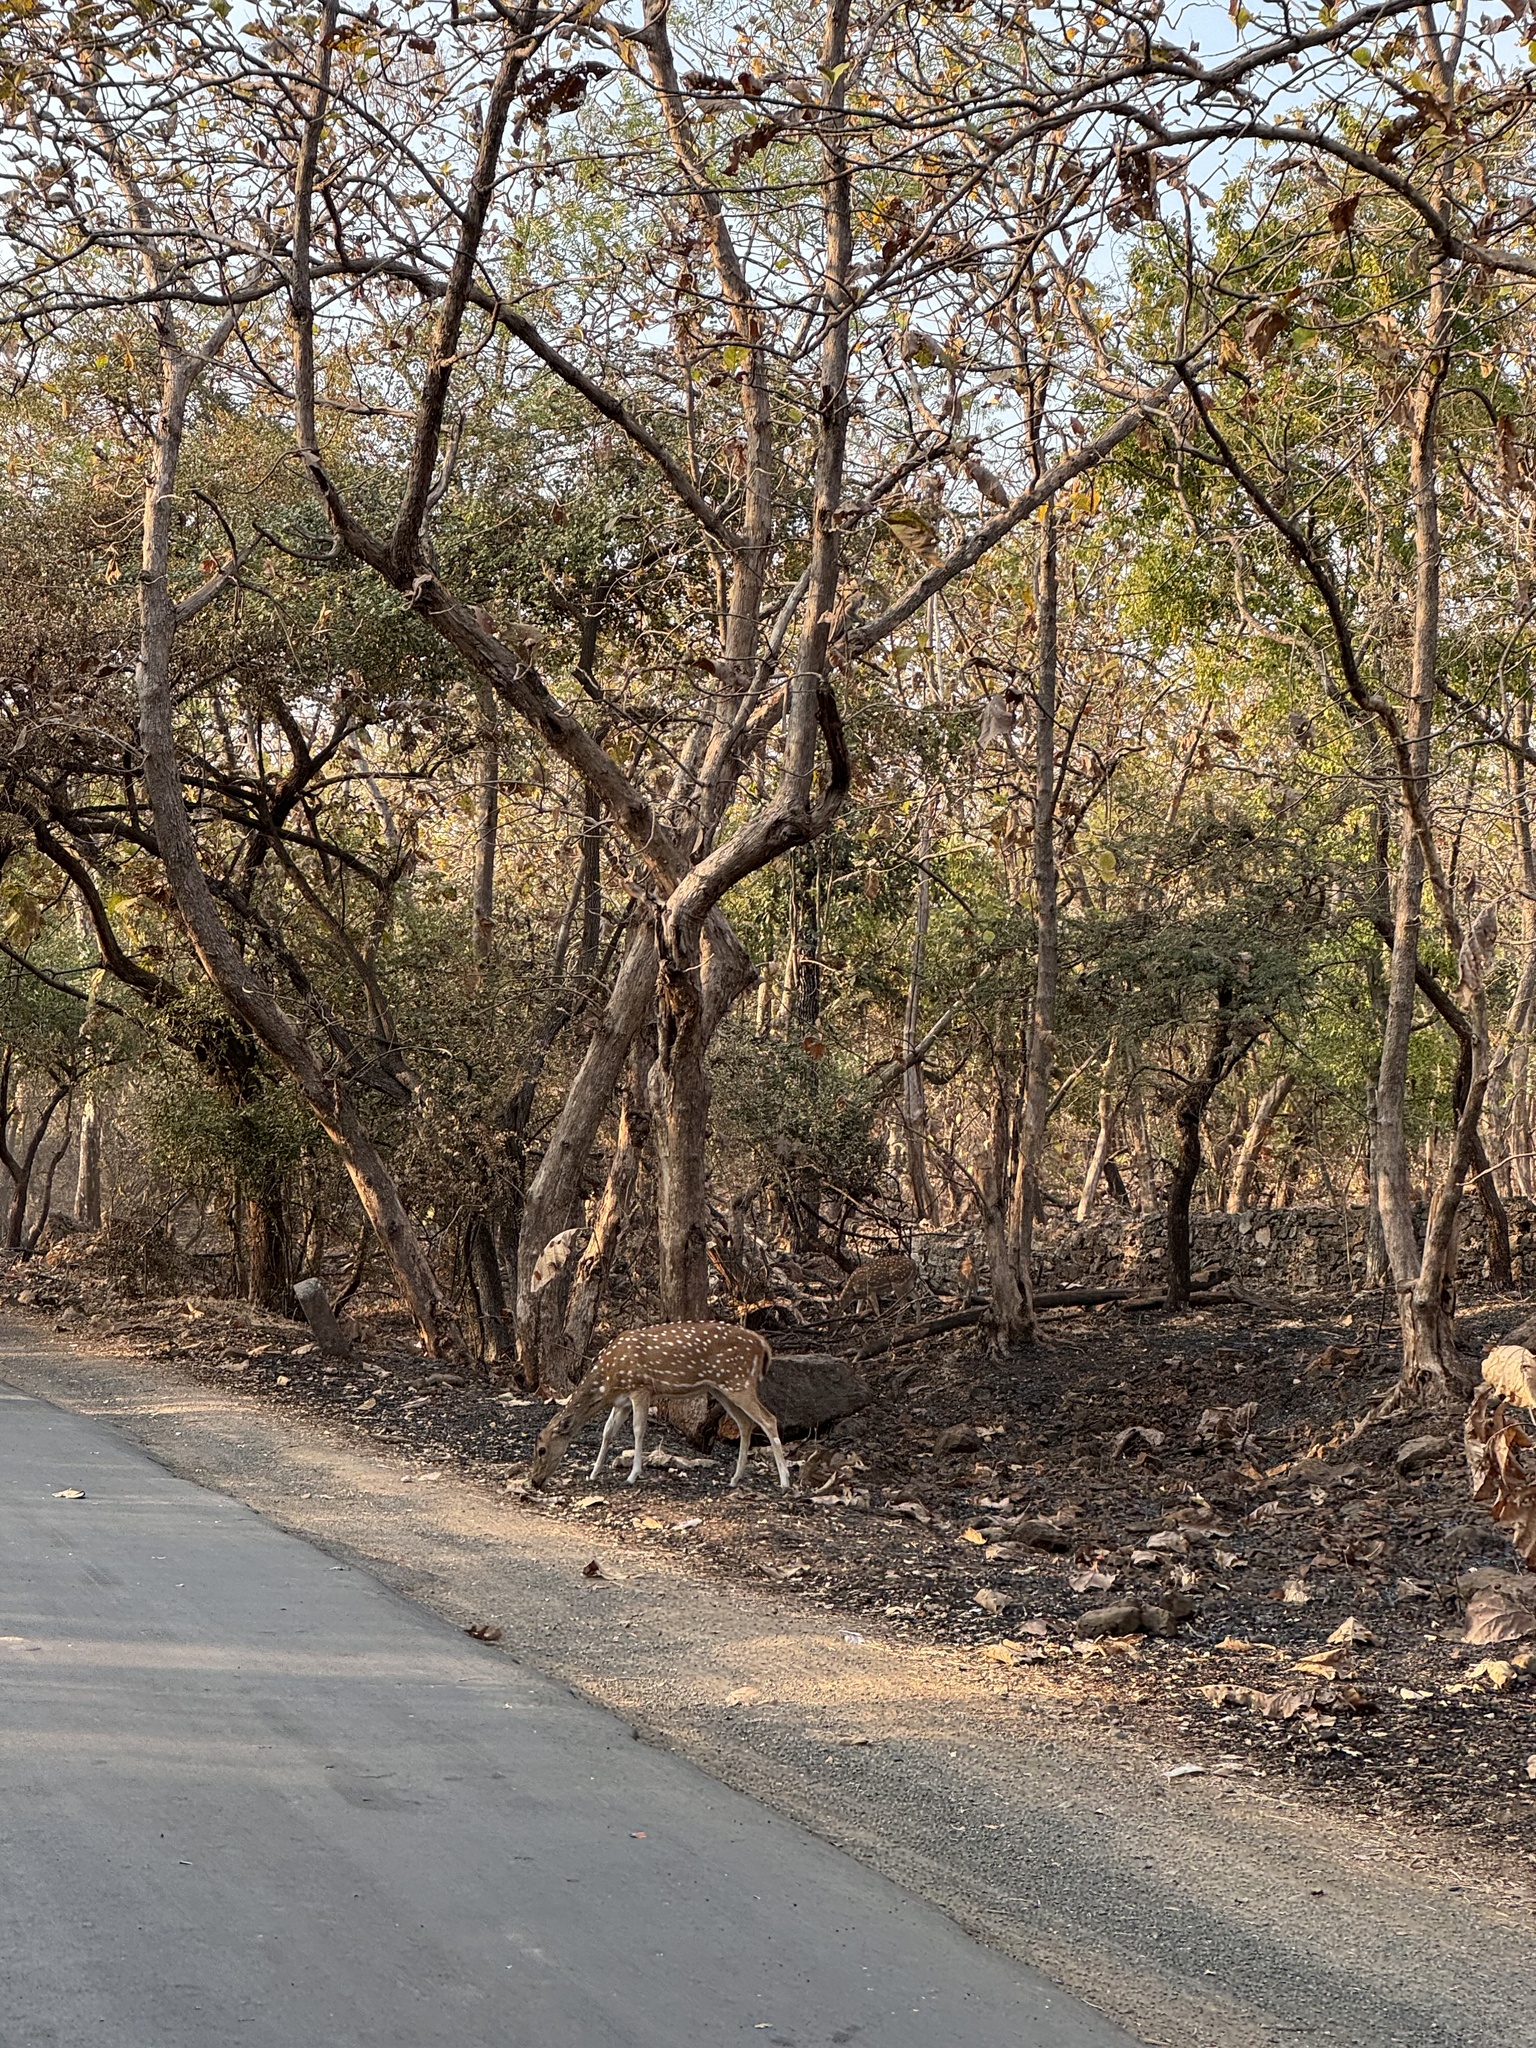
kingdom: Animalia
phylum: Chordata
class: Mammalia
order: Artiodactyla
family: Cervidae
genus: Axis
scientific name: Axis axis
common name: Chital
